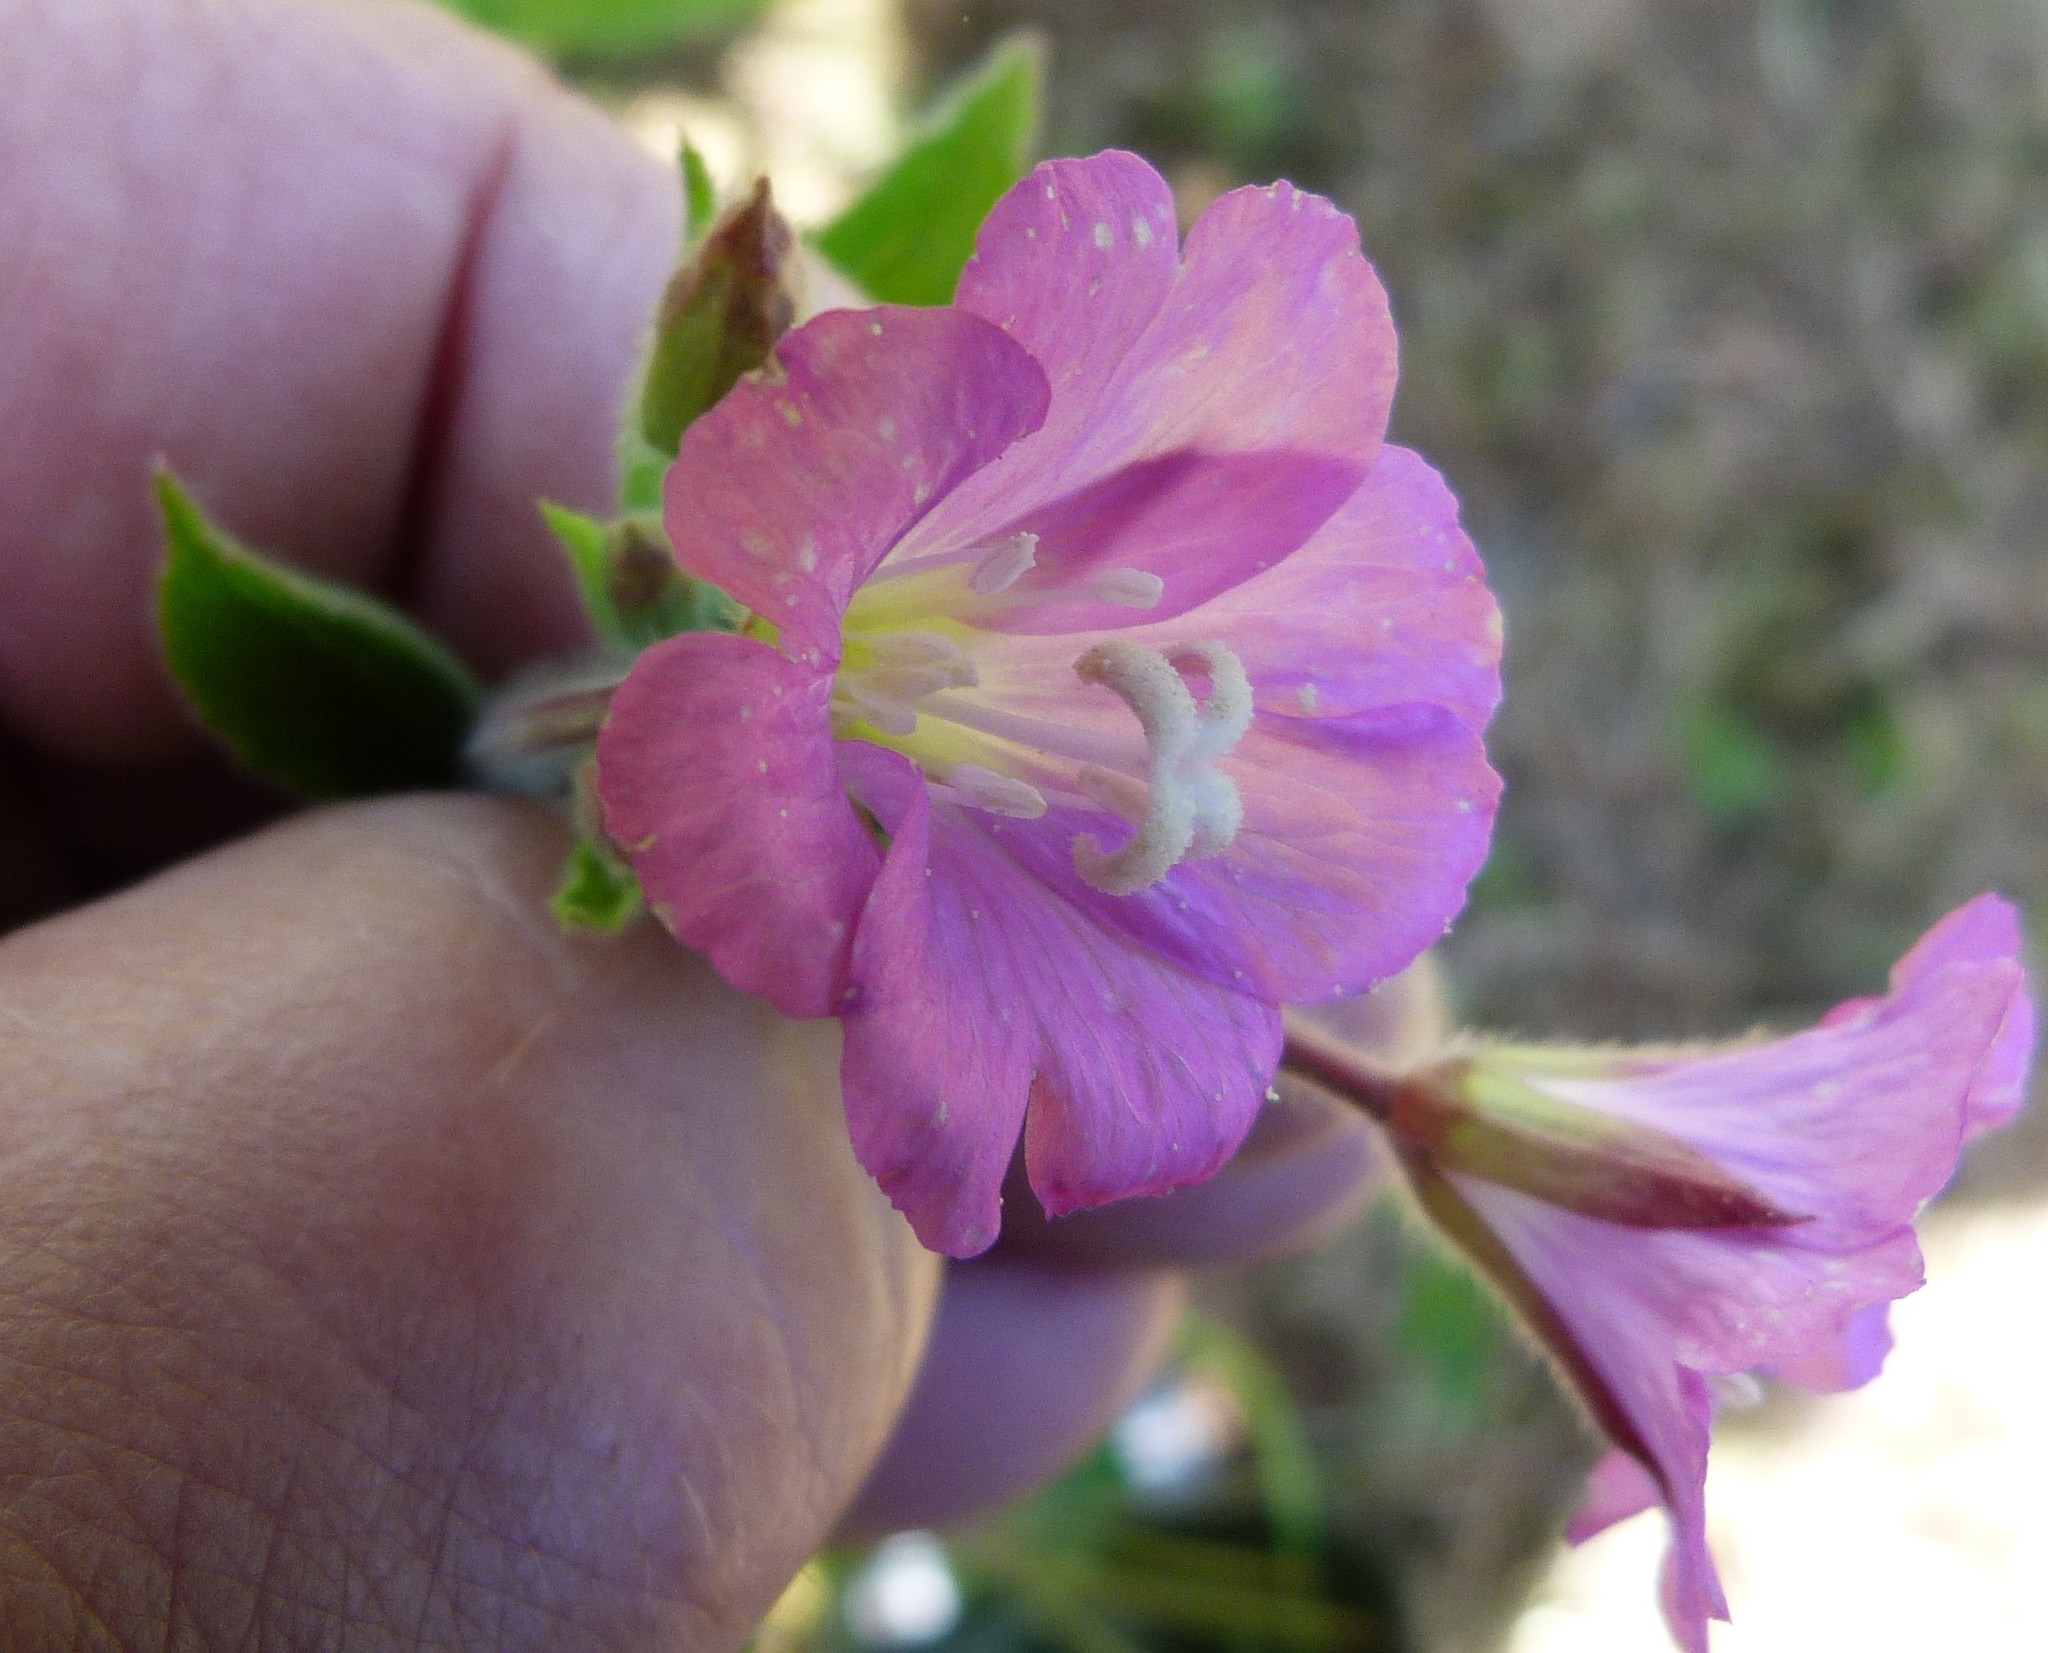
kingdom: Plantae
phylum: Tracheophyta
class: Magnoliopsida
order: Myrtales
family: Onagraceae
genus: Epilobium
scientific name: Epilobium hirsutum
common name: Great willowherb
